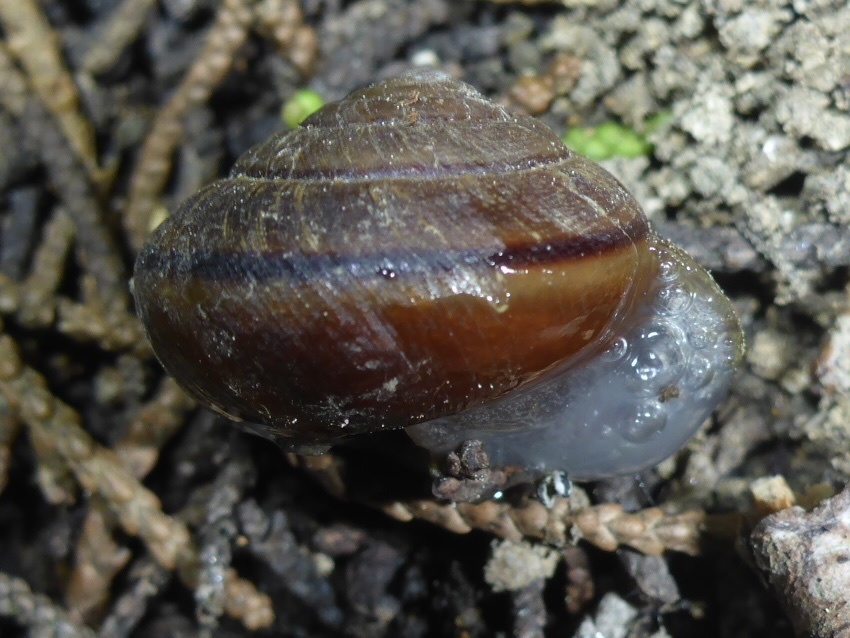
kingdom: Animalia
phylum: Mollusca
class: Gastropoda
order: Stylommatophora
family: Xanthonychidae
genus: Helminthoglypta
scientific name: Helminthoglypta arrosa
